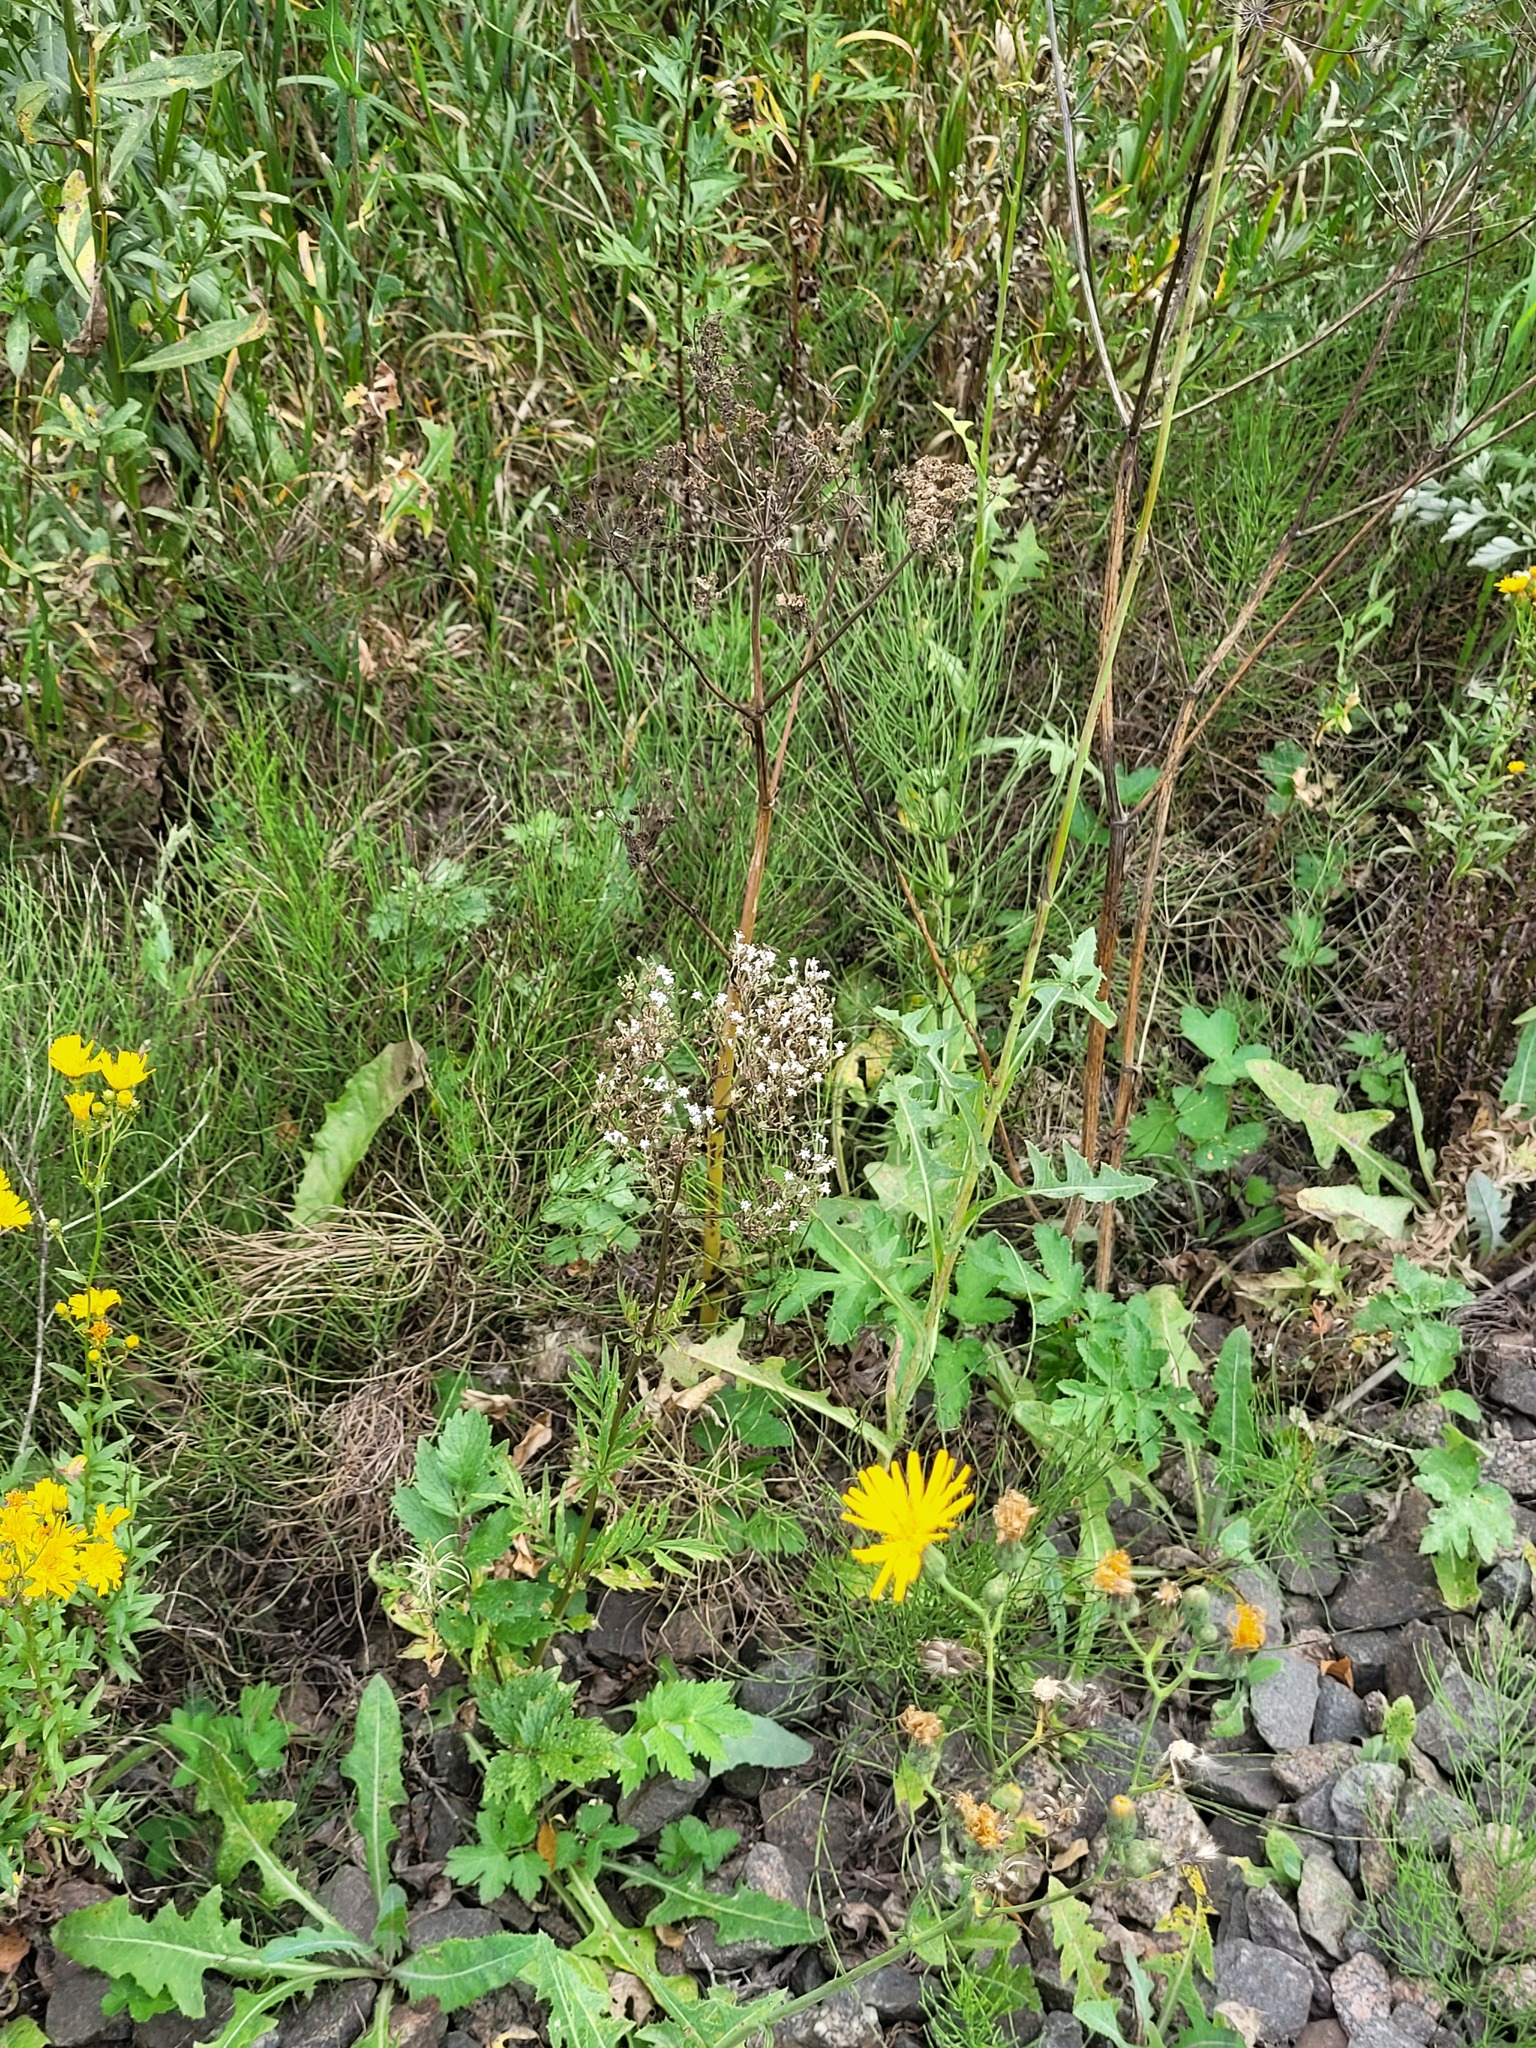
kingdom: Plantae
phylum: Tracheophyta
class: Magnoliopsida
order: Dipsacales
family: Caprifoliaceae
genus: Valeriana
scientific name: Valeriana officinalis
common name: Common valerian
